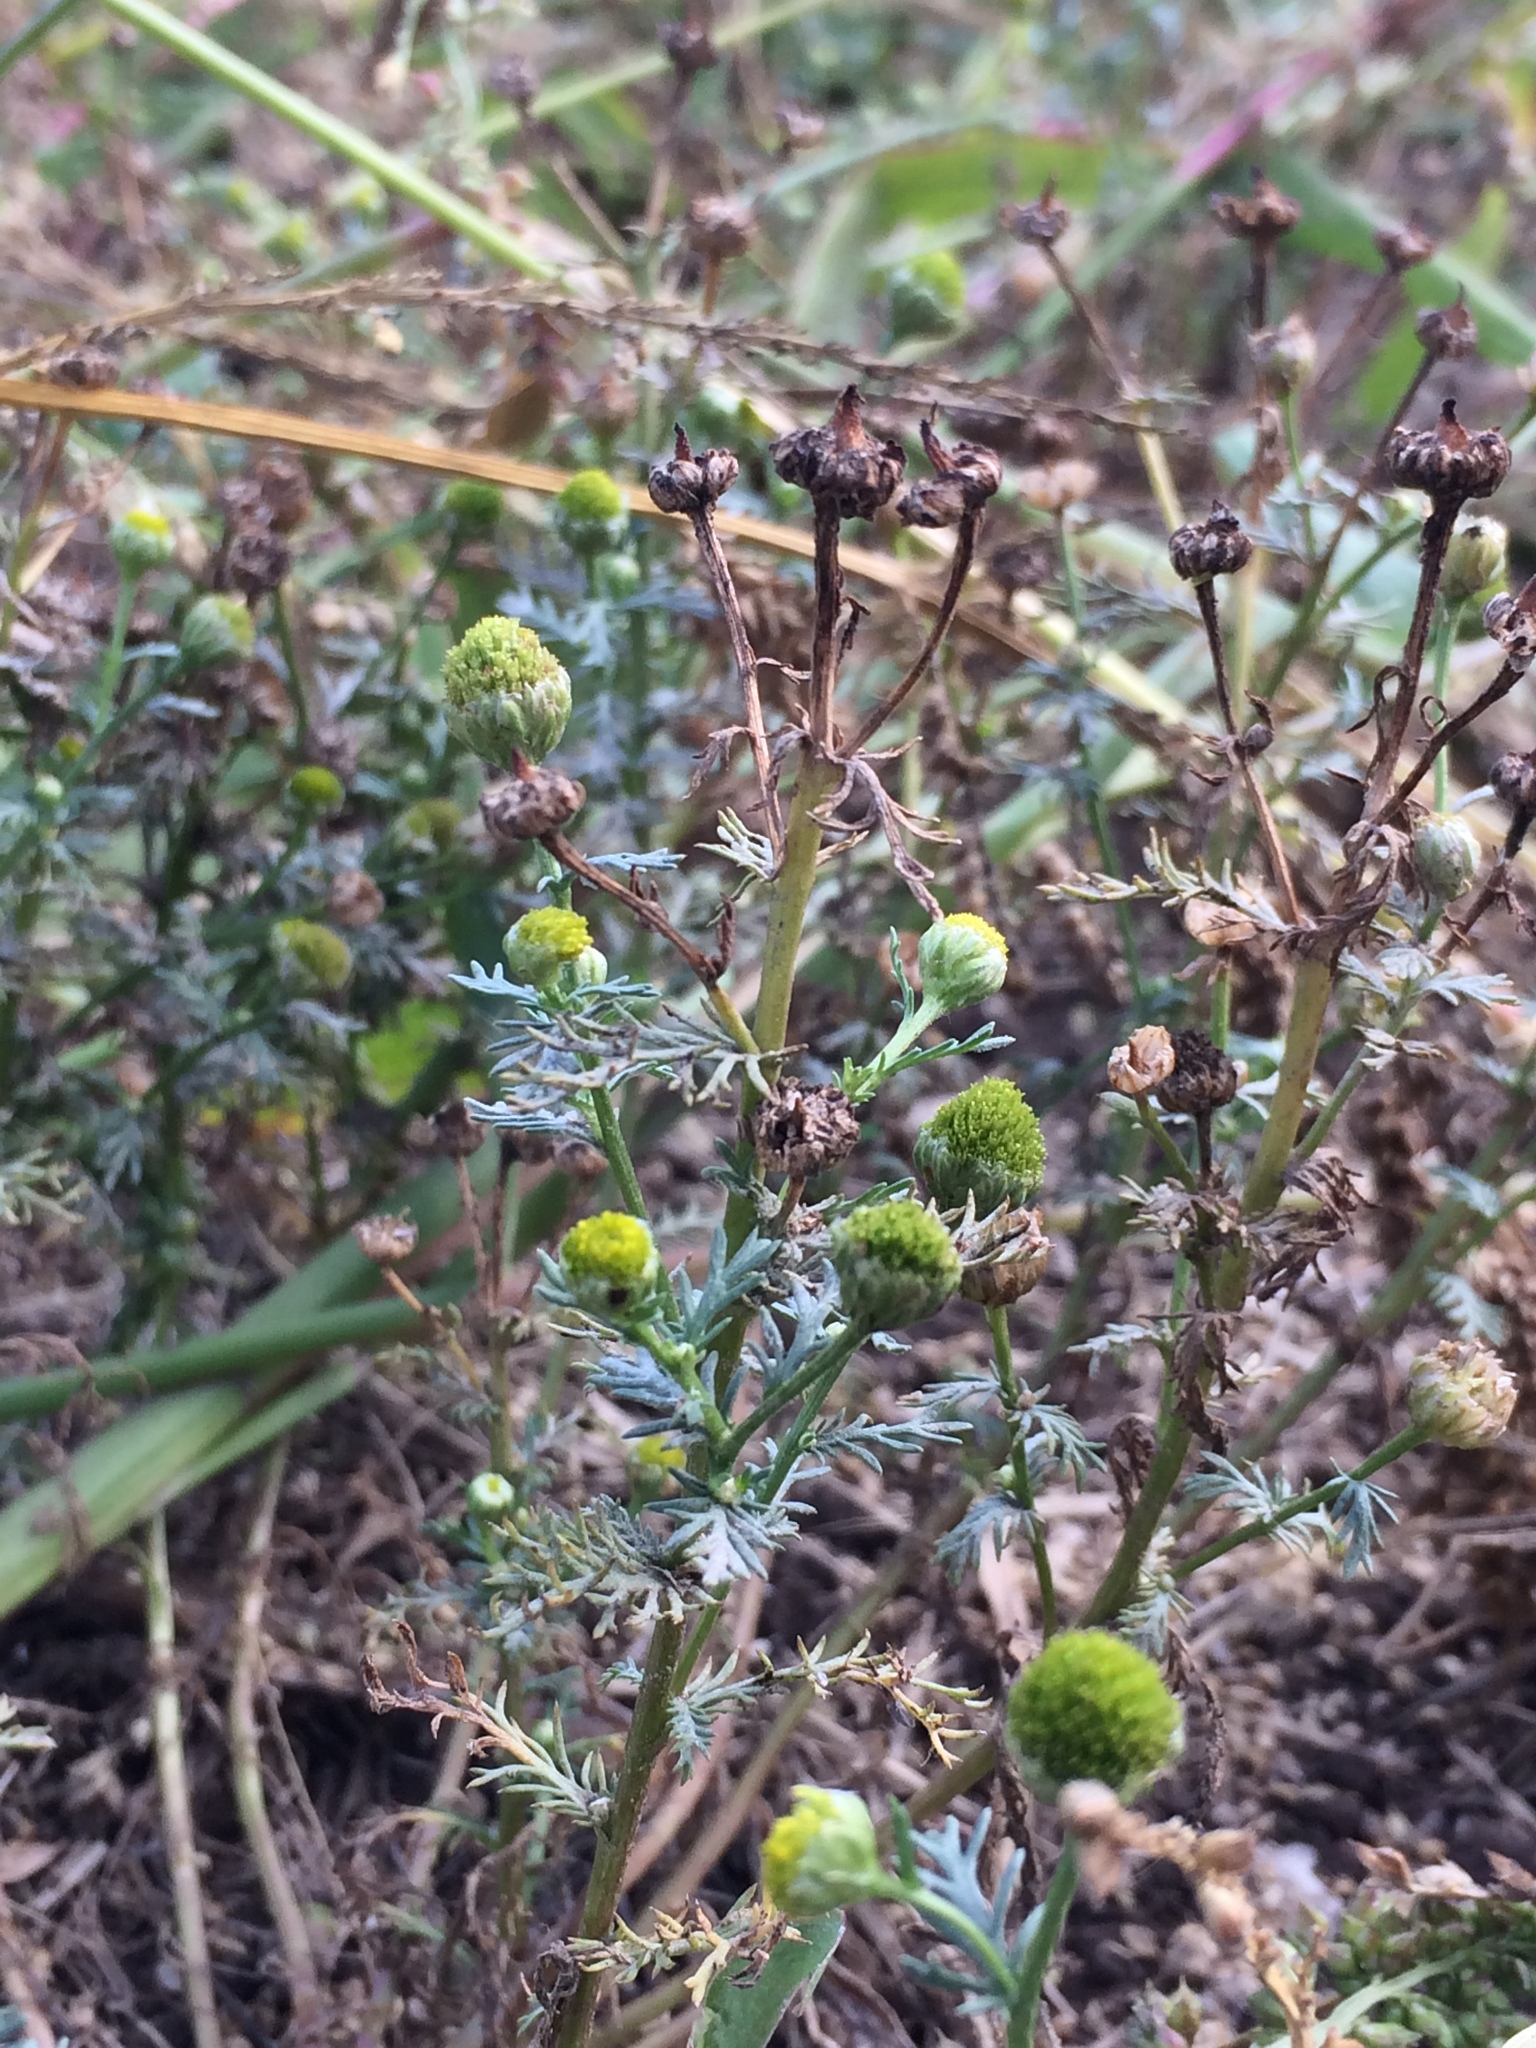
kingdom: Plantae
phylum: Tracheophyta
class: Magnoliopsida
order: Asterales
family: Asteraceae
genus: Matricaria
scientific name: Matricaria discoidea
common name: Disc mayweed
